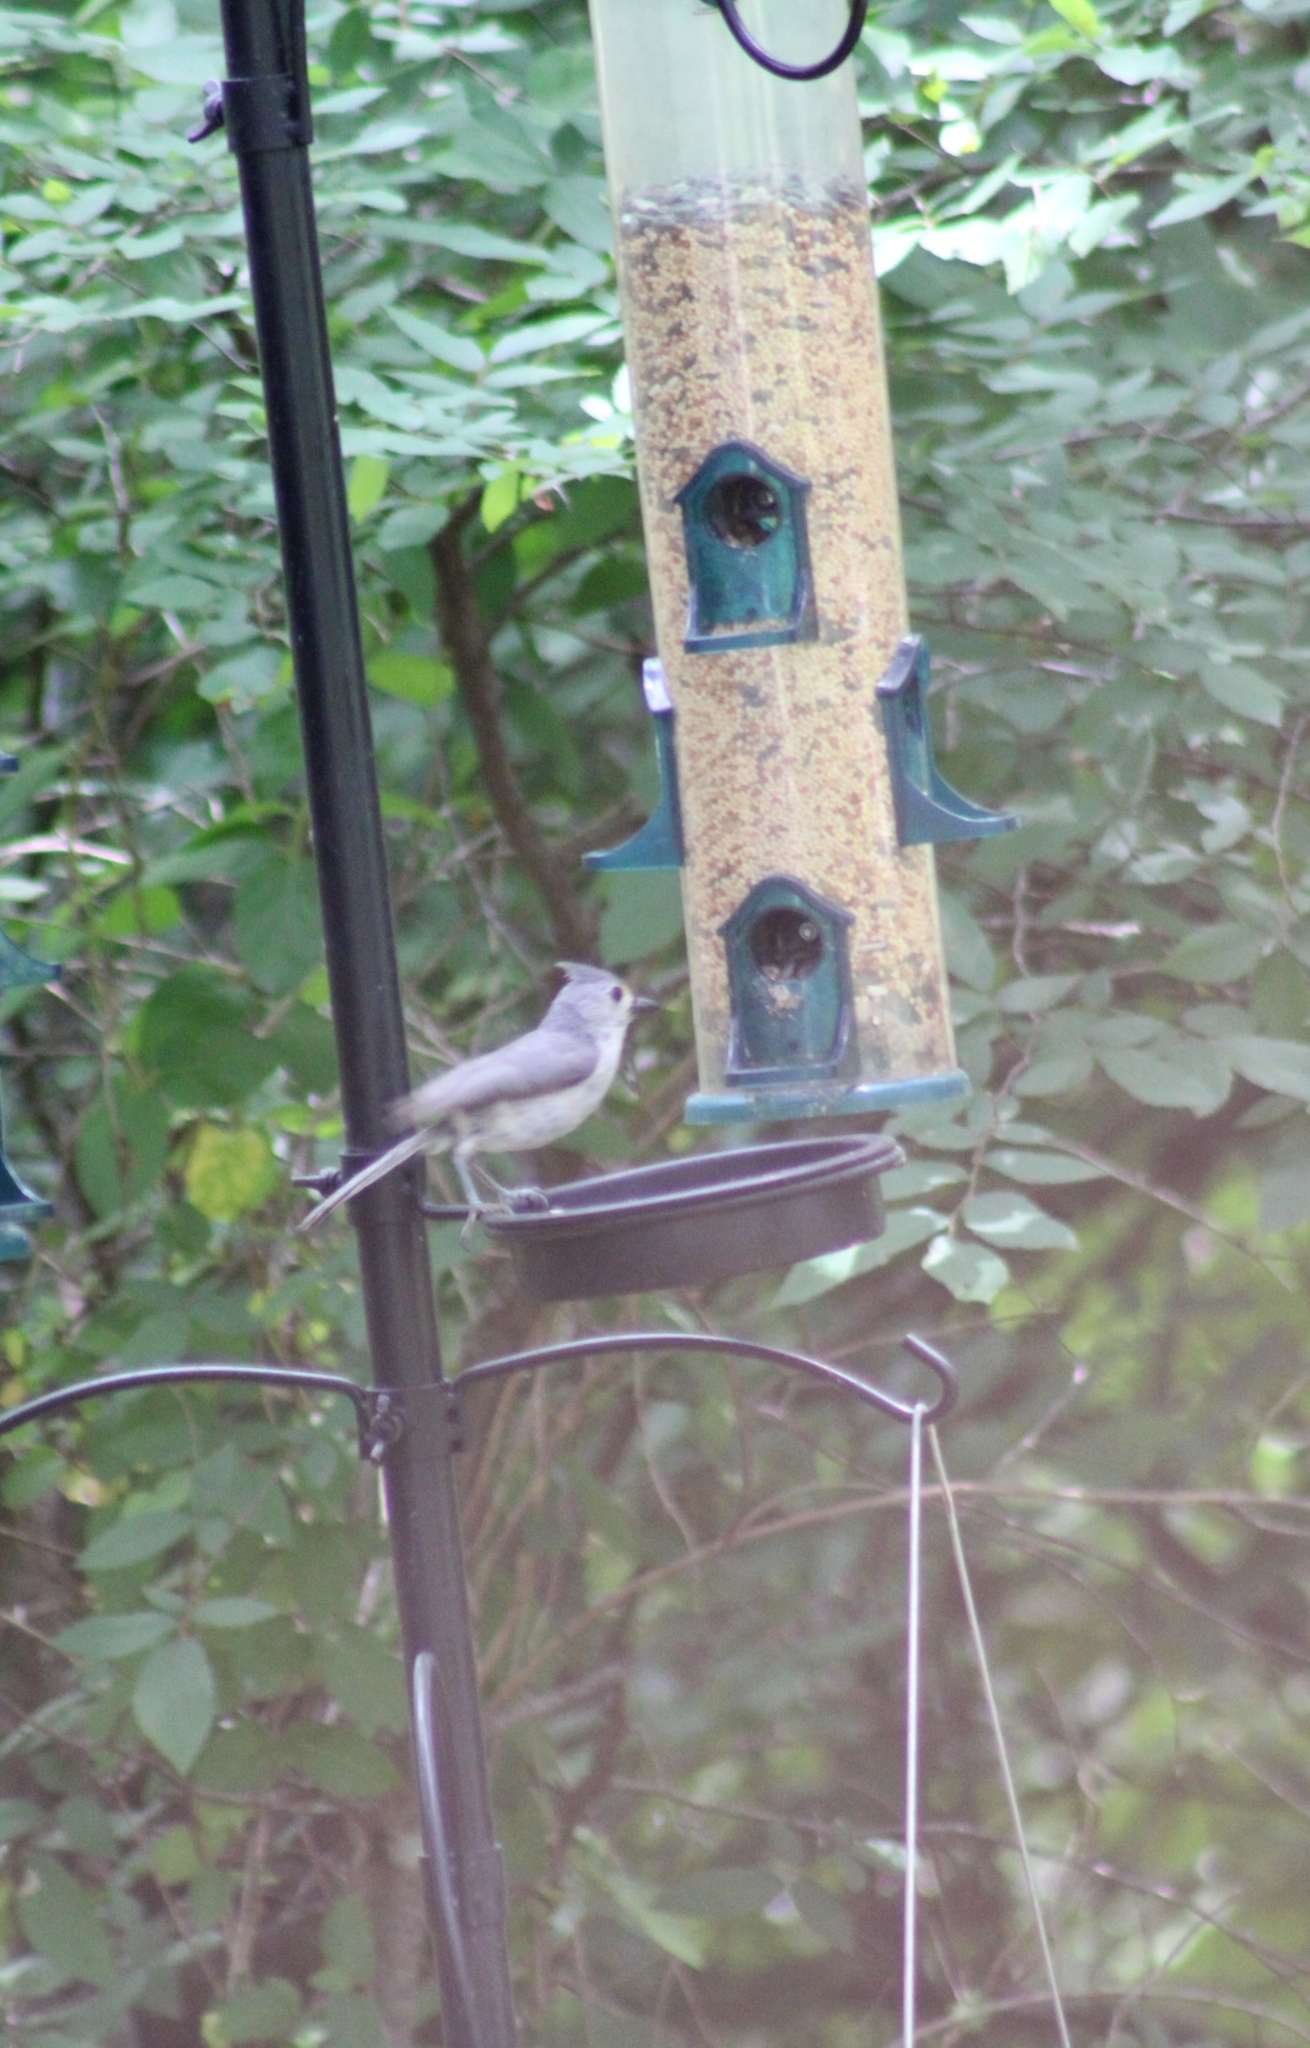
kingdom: Animalia
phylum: Chordata
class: Aves
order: Passeriformes
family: Paridae
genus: Baeolophus
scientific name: Baeolophus bicolor
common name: Tufted titmouse
